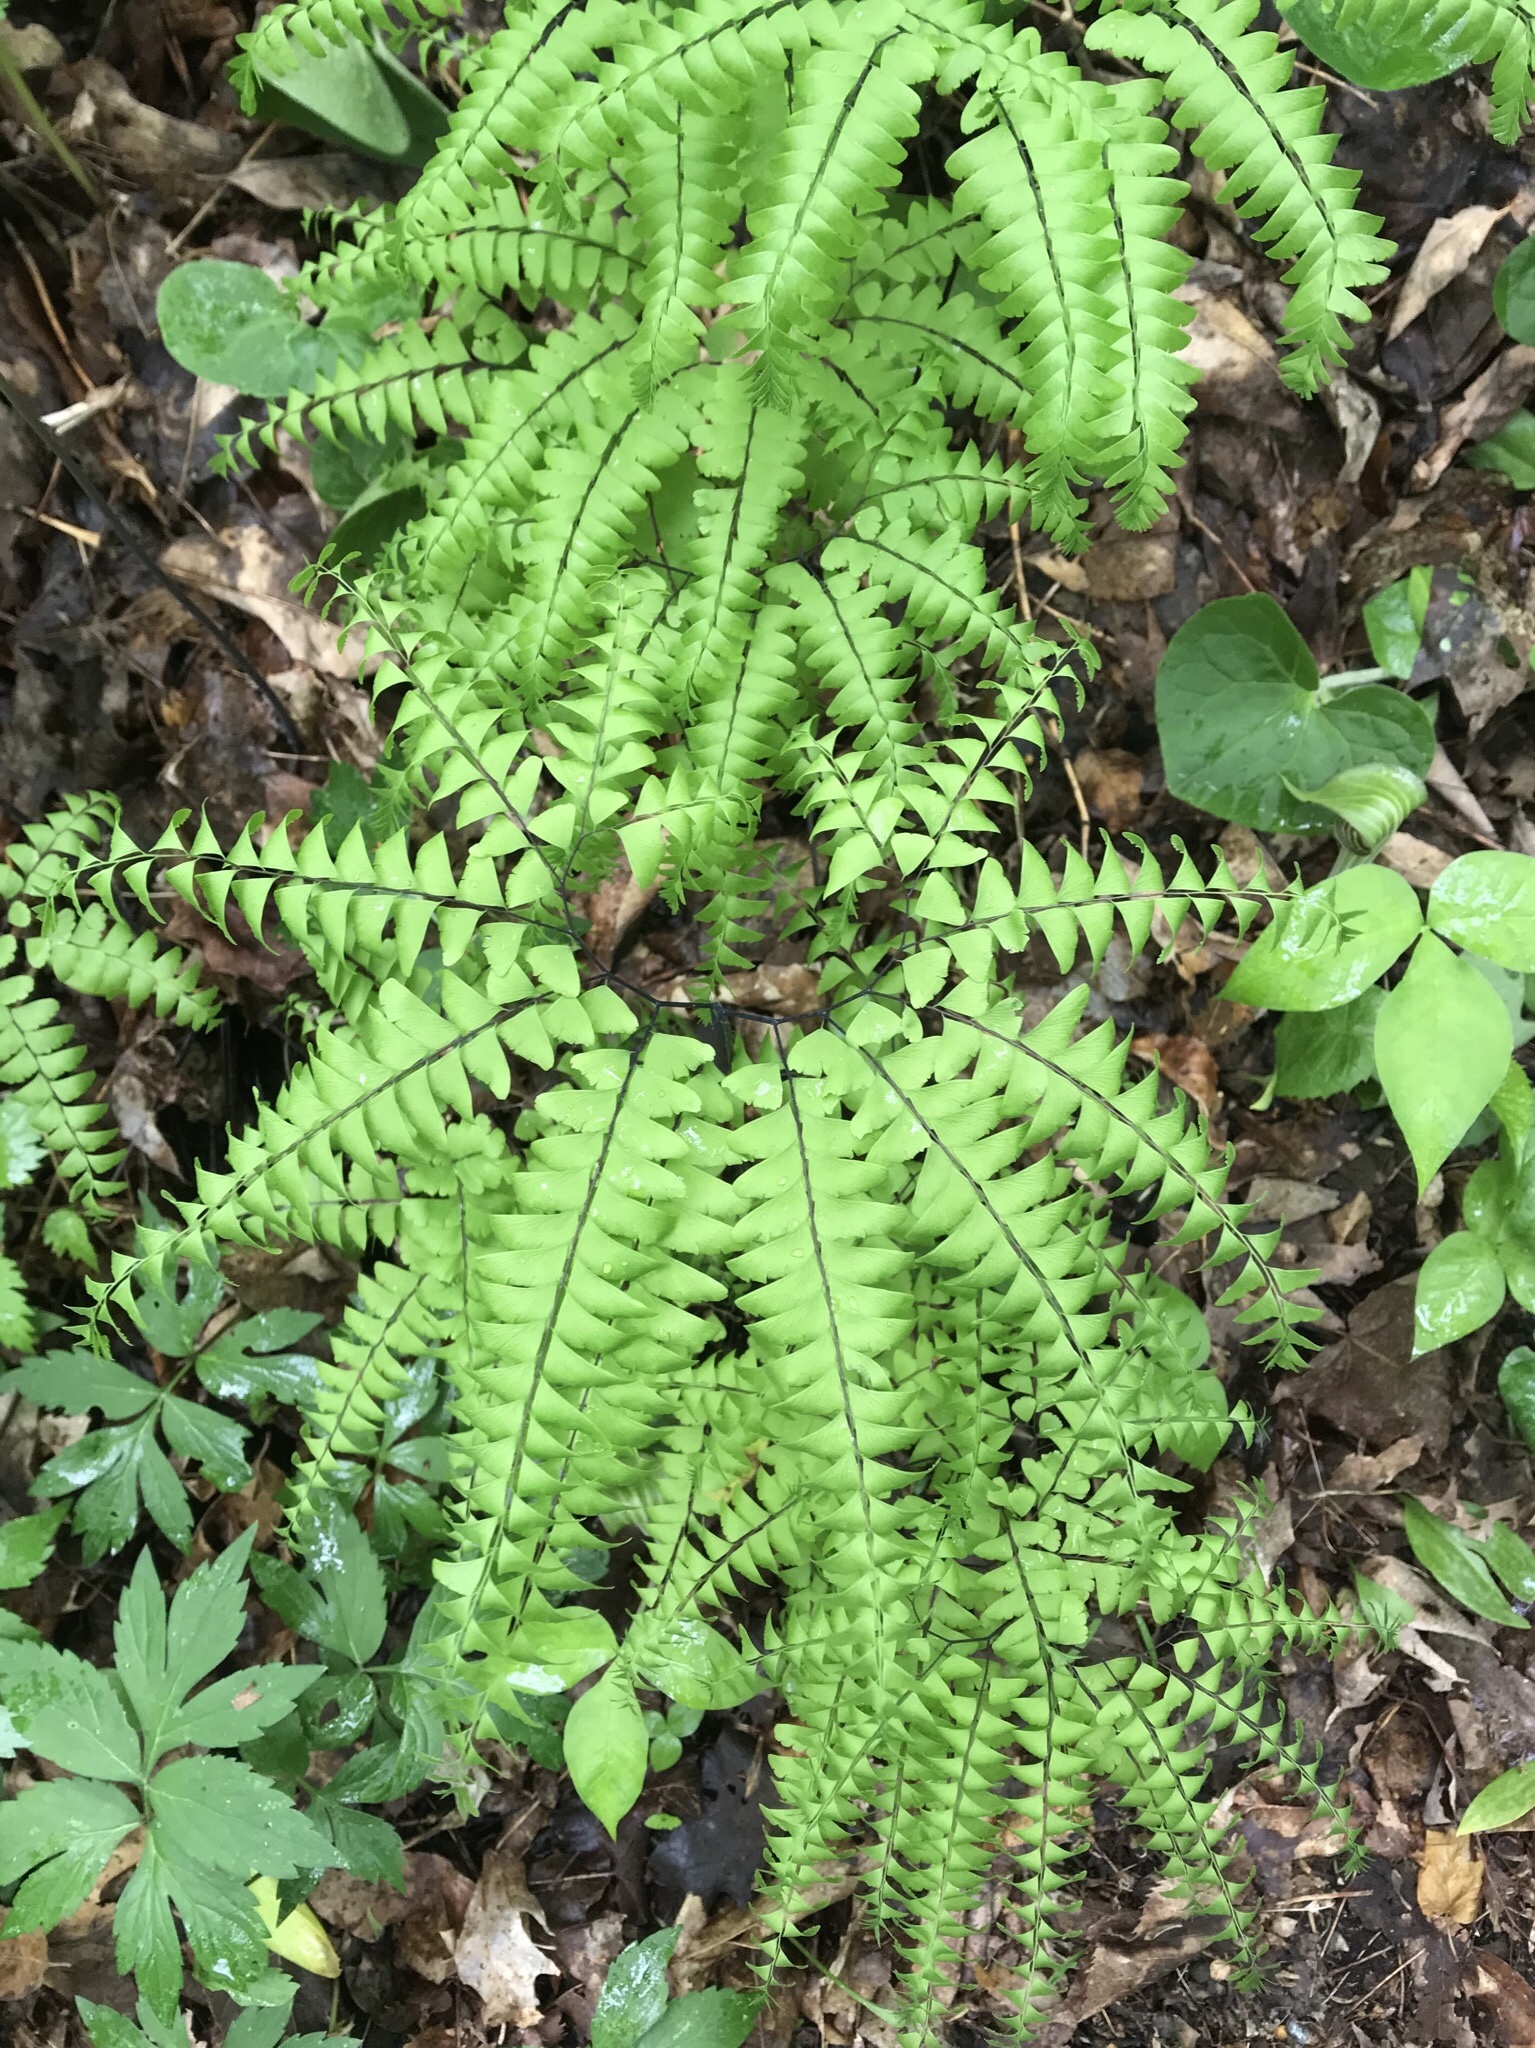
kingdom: Plantae
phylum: Tracheophyta
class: Polypodiopsida
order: Polypodiales
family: Pteridaceae
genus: Adiantum
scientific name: Adiantum pedatum
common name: Five-finger fern
